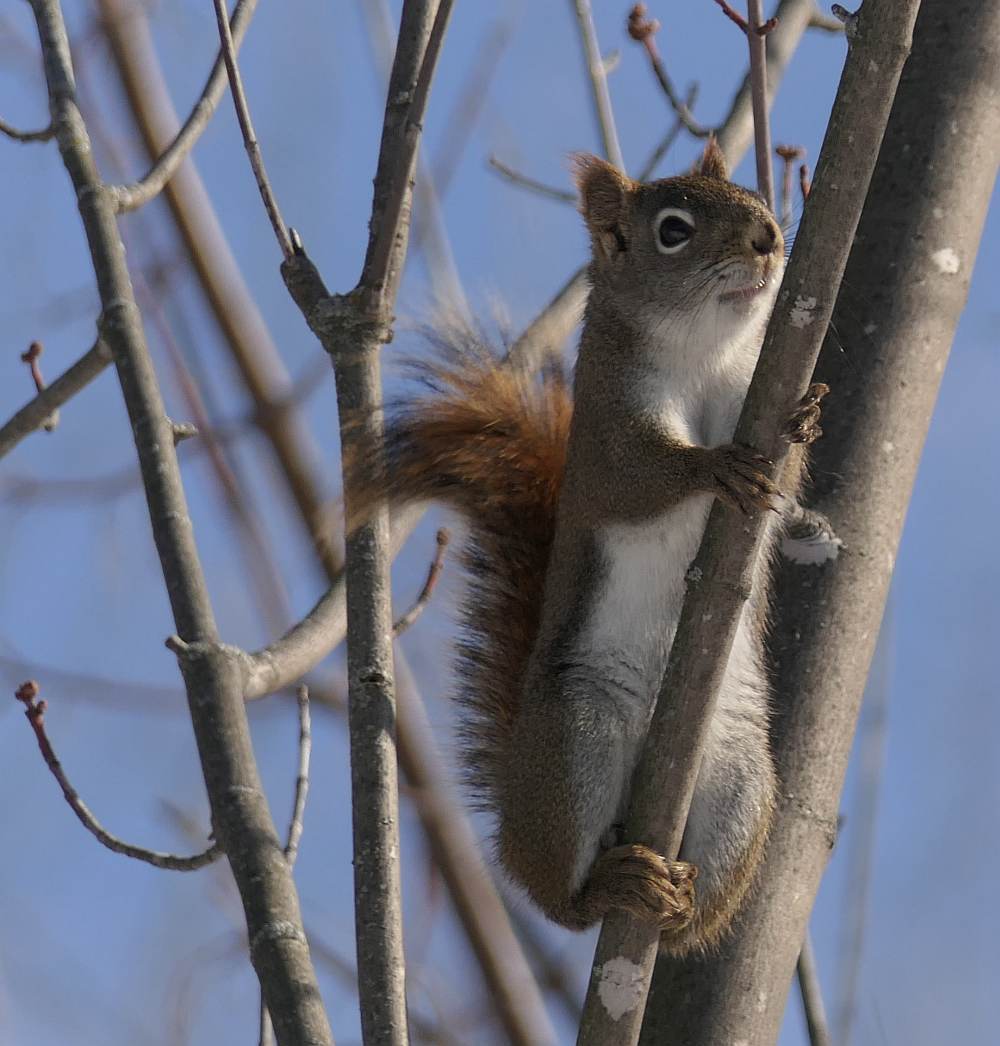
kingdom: Animalia
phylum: Chordata
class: Mammalia
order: Rodentia
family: Sciuridae
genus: Tamiasciurus
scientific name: Tamiasciurus hudsonicus
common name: Red squirrel
